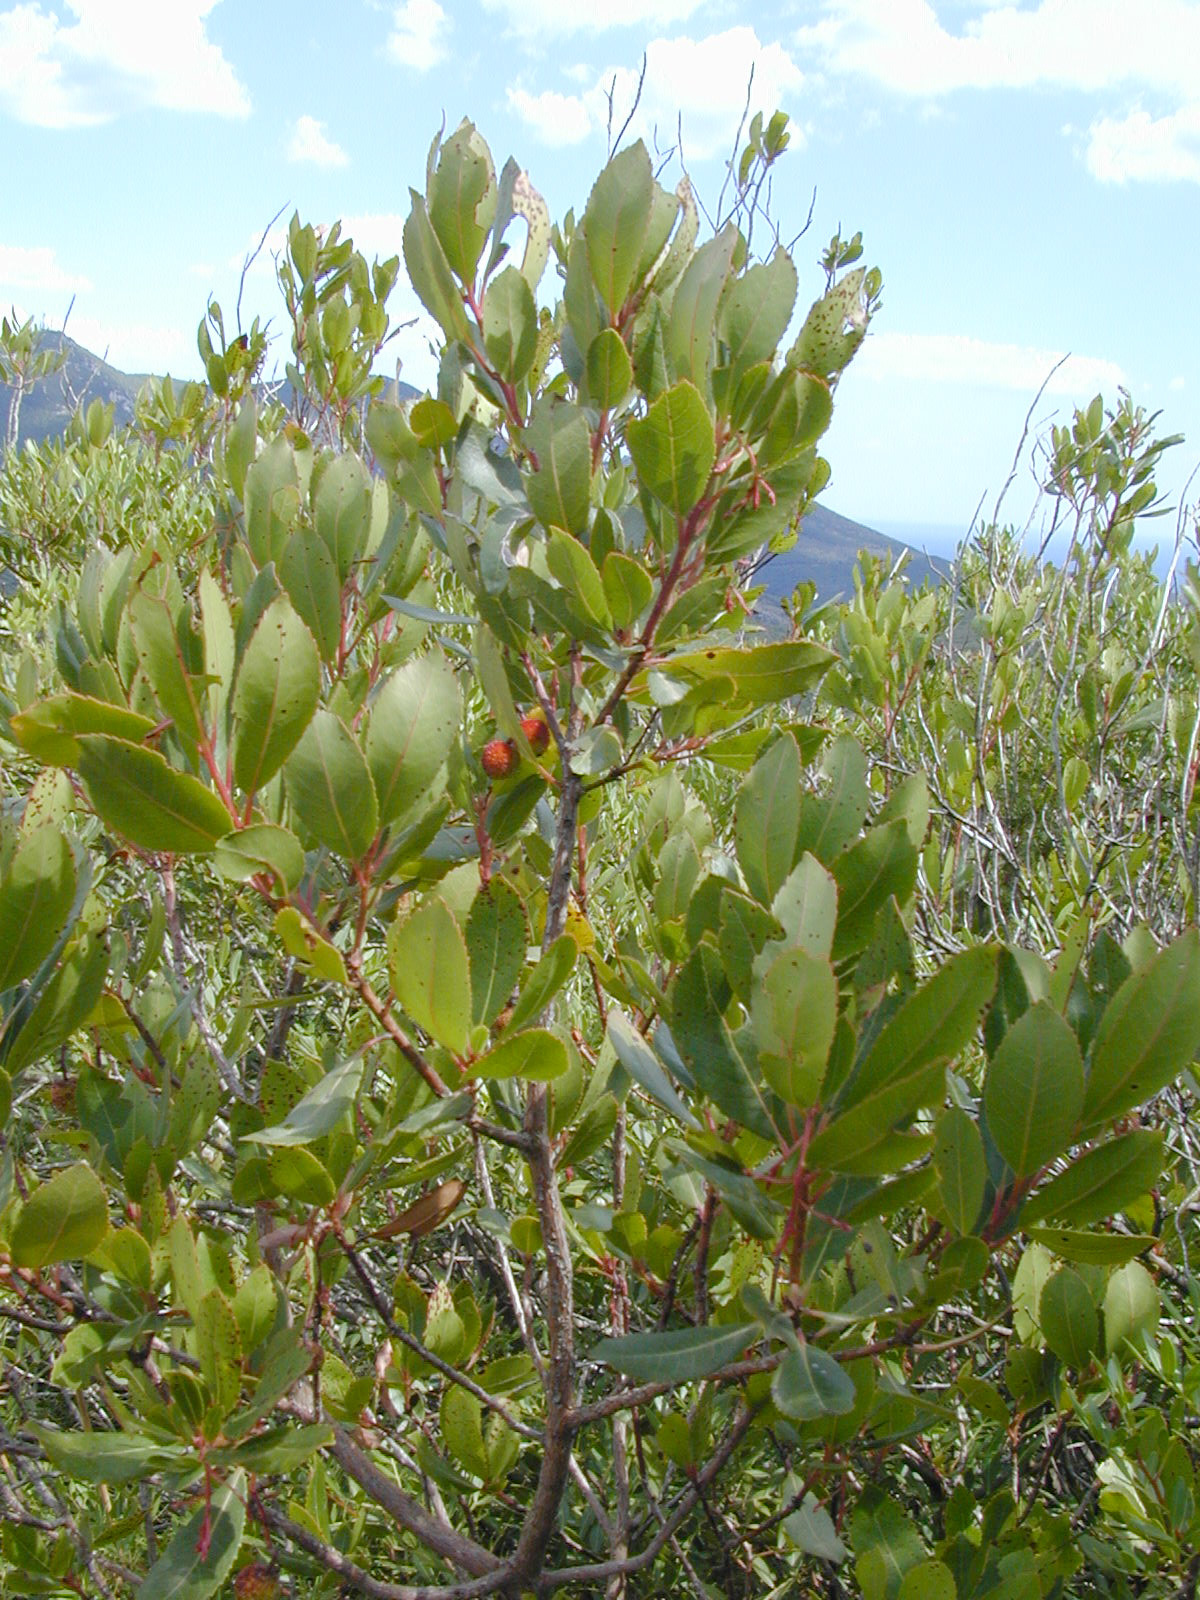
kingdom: Plantae
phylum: Tracheophyta
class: Magnoliopsida
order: Ericales
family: Ericaceae
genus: Arbutus
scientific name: Arbutus unedo
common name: Strawberry-tree
